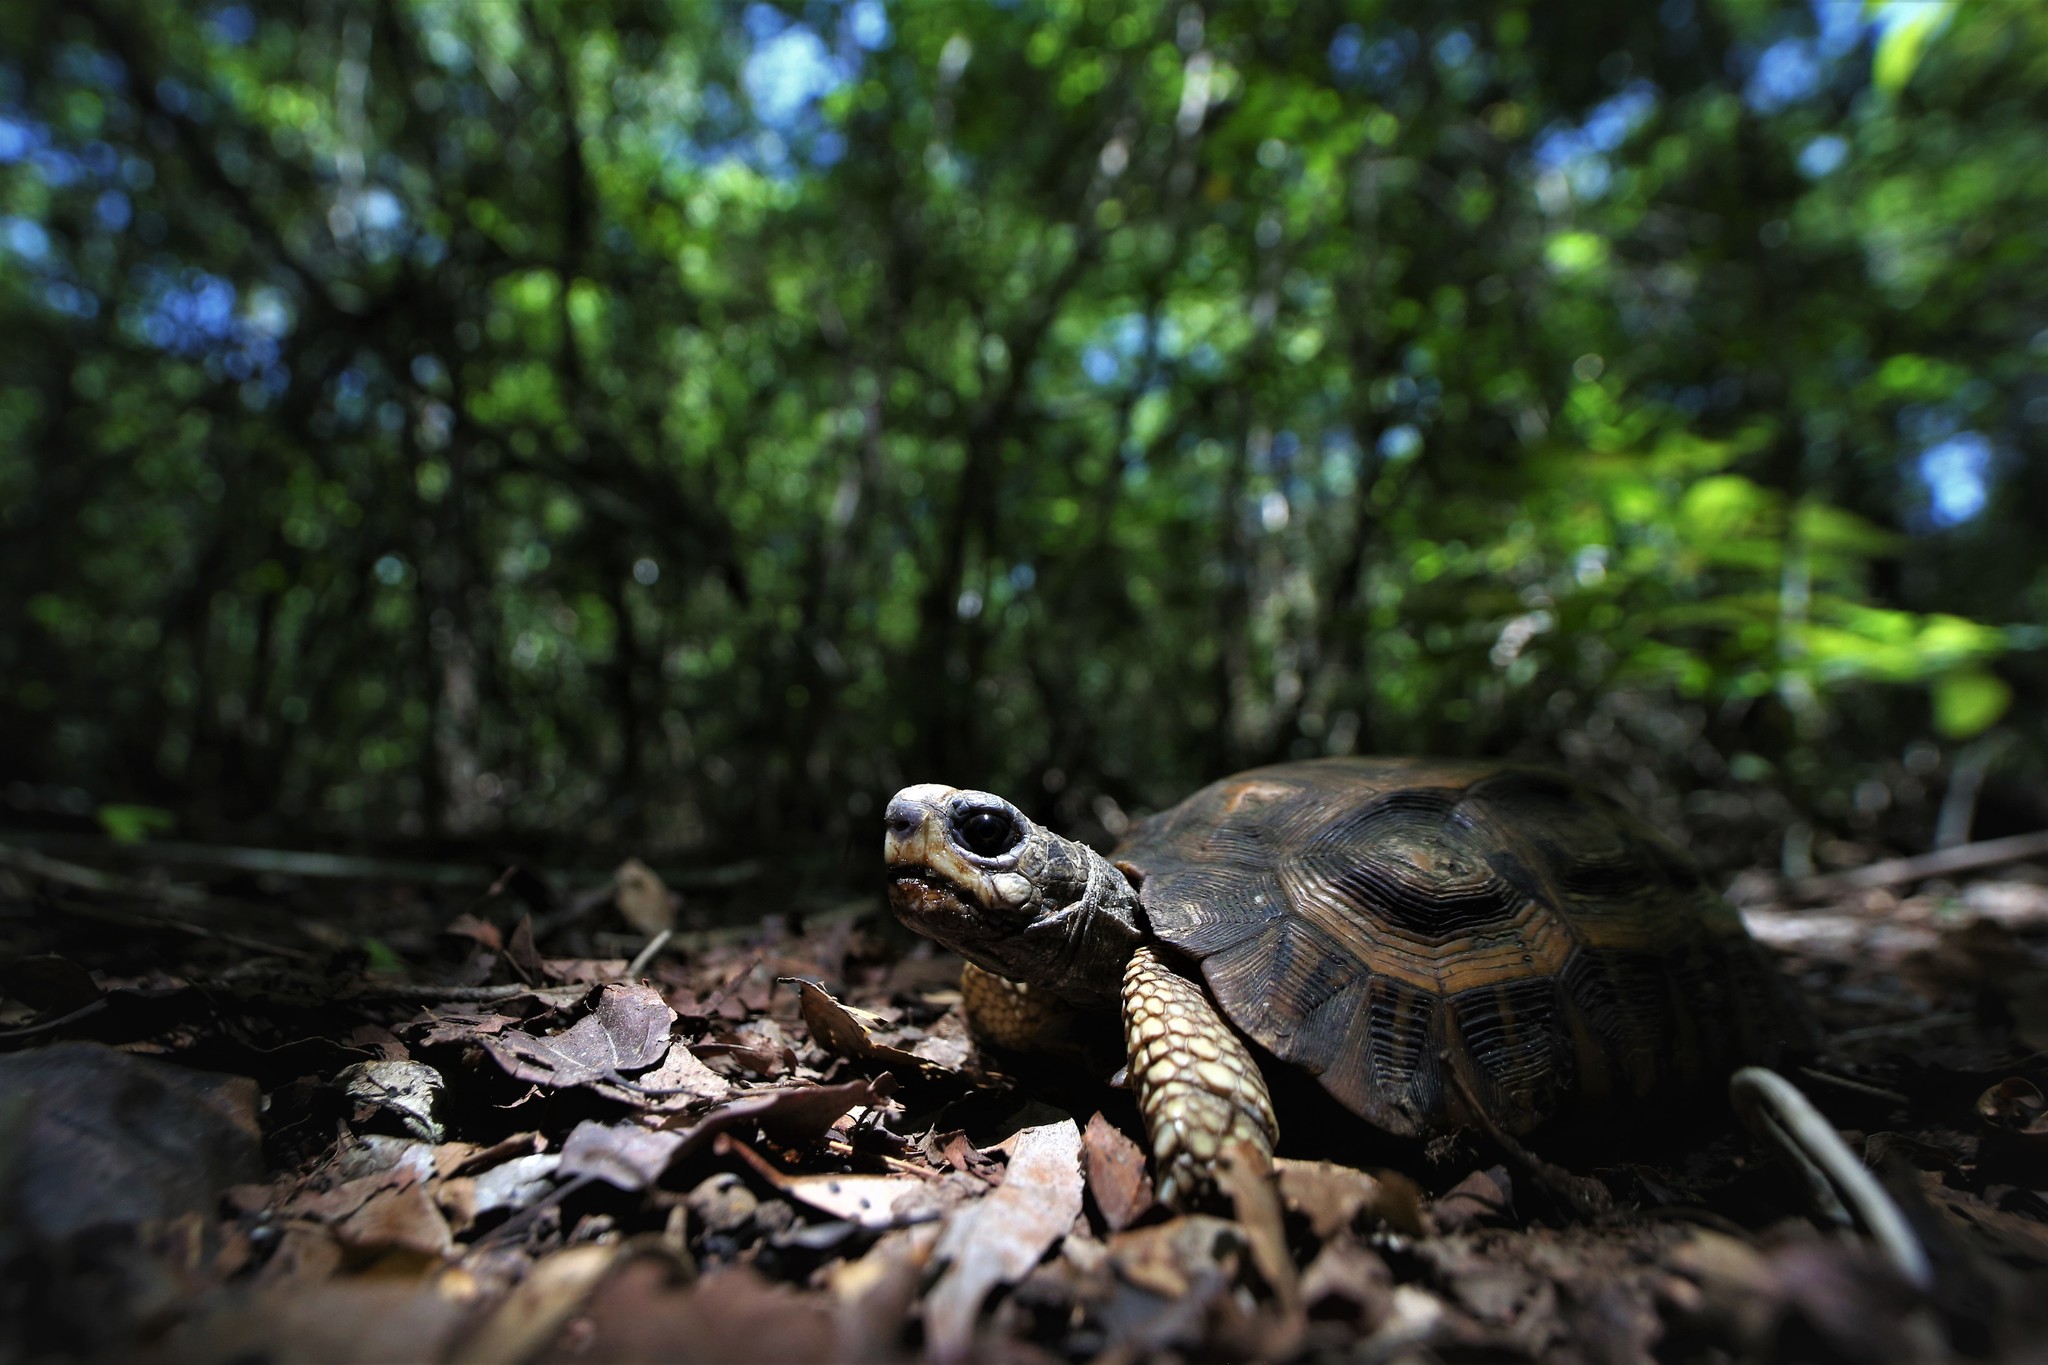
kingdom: Animalia
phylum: Chordata
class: Testudines
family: Testudinidae
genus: Pyxis
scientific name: Pyxis planicauda
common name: Flat-shelled spider tortoise
